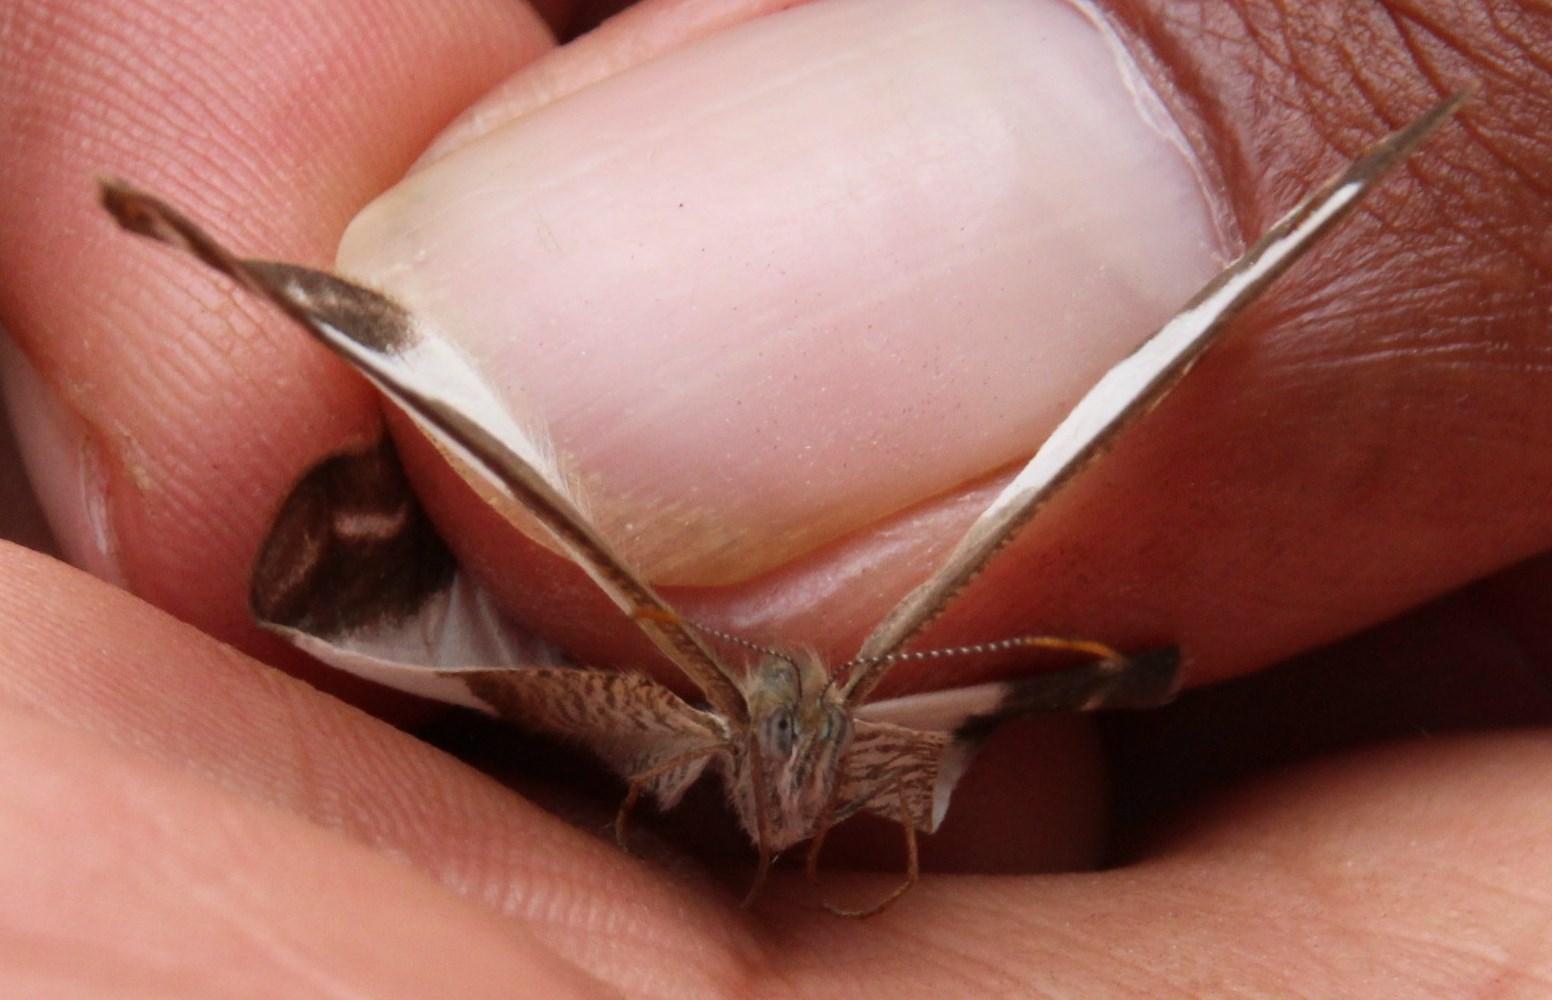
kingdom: Animalia
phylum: Arthropoda
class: Insecta
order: Lepidoptera
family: Nymphalidae
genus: Oressinoma
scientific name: Oressinoma typhla
